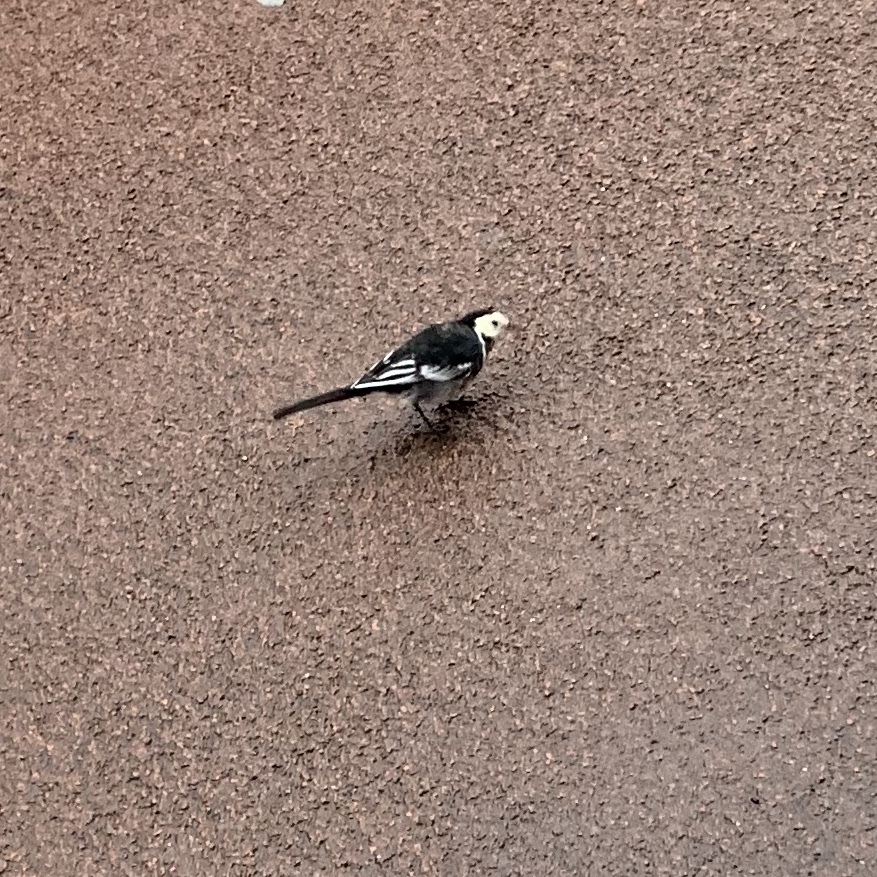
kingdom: Animalia
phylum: Chordata
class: Aves
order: Passeriformes
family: Motacillidae
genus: Motacilla
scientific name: Motacilla alba
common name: White wagtail
